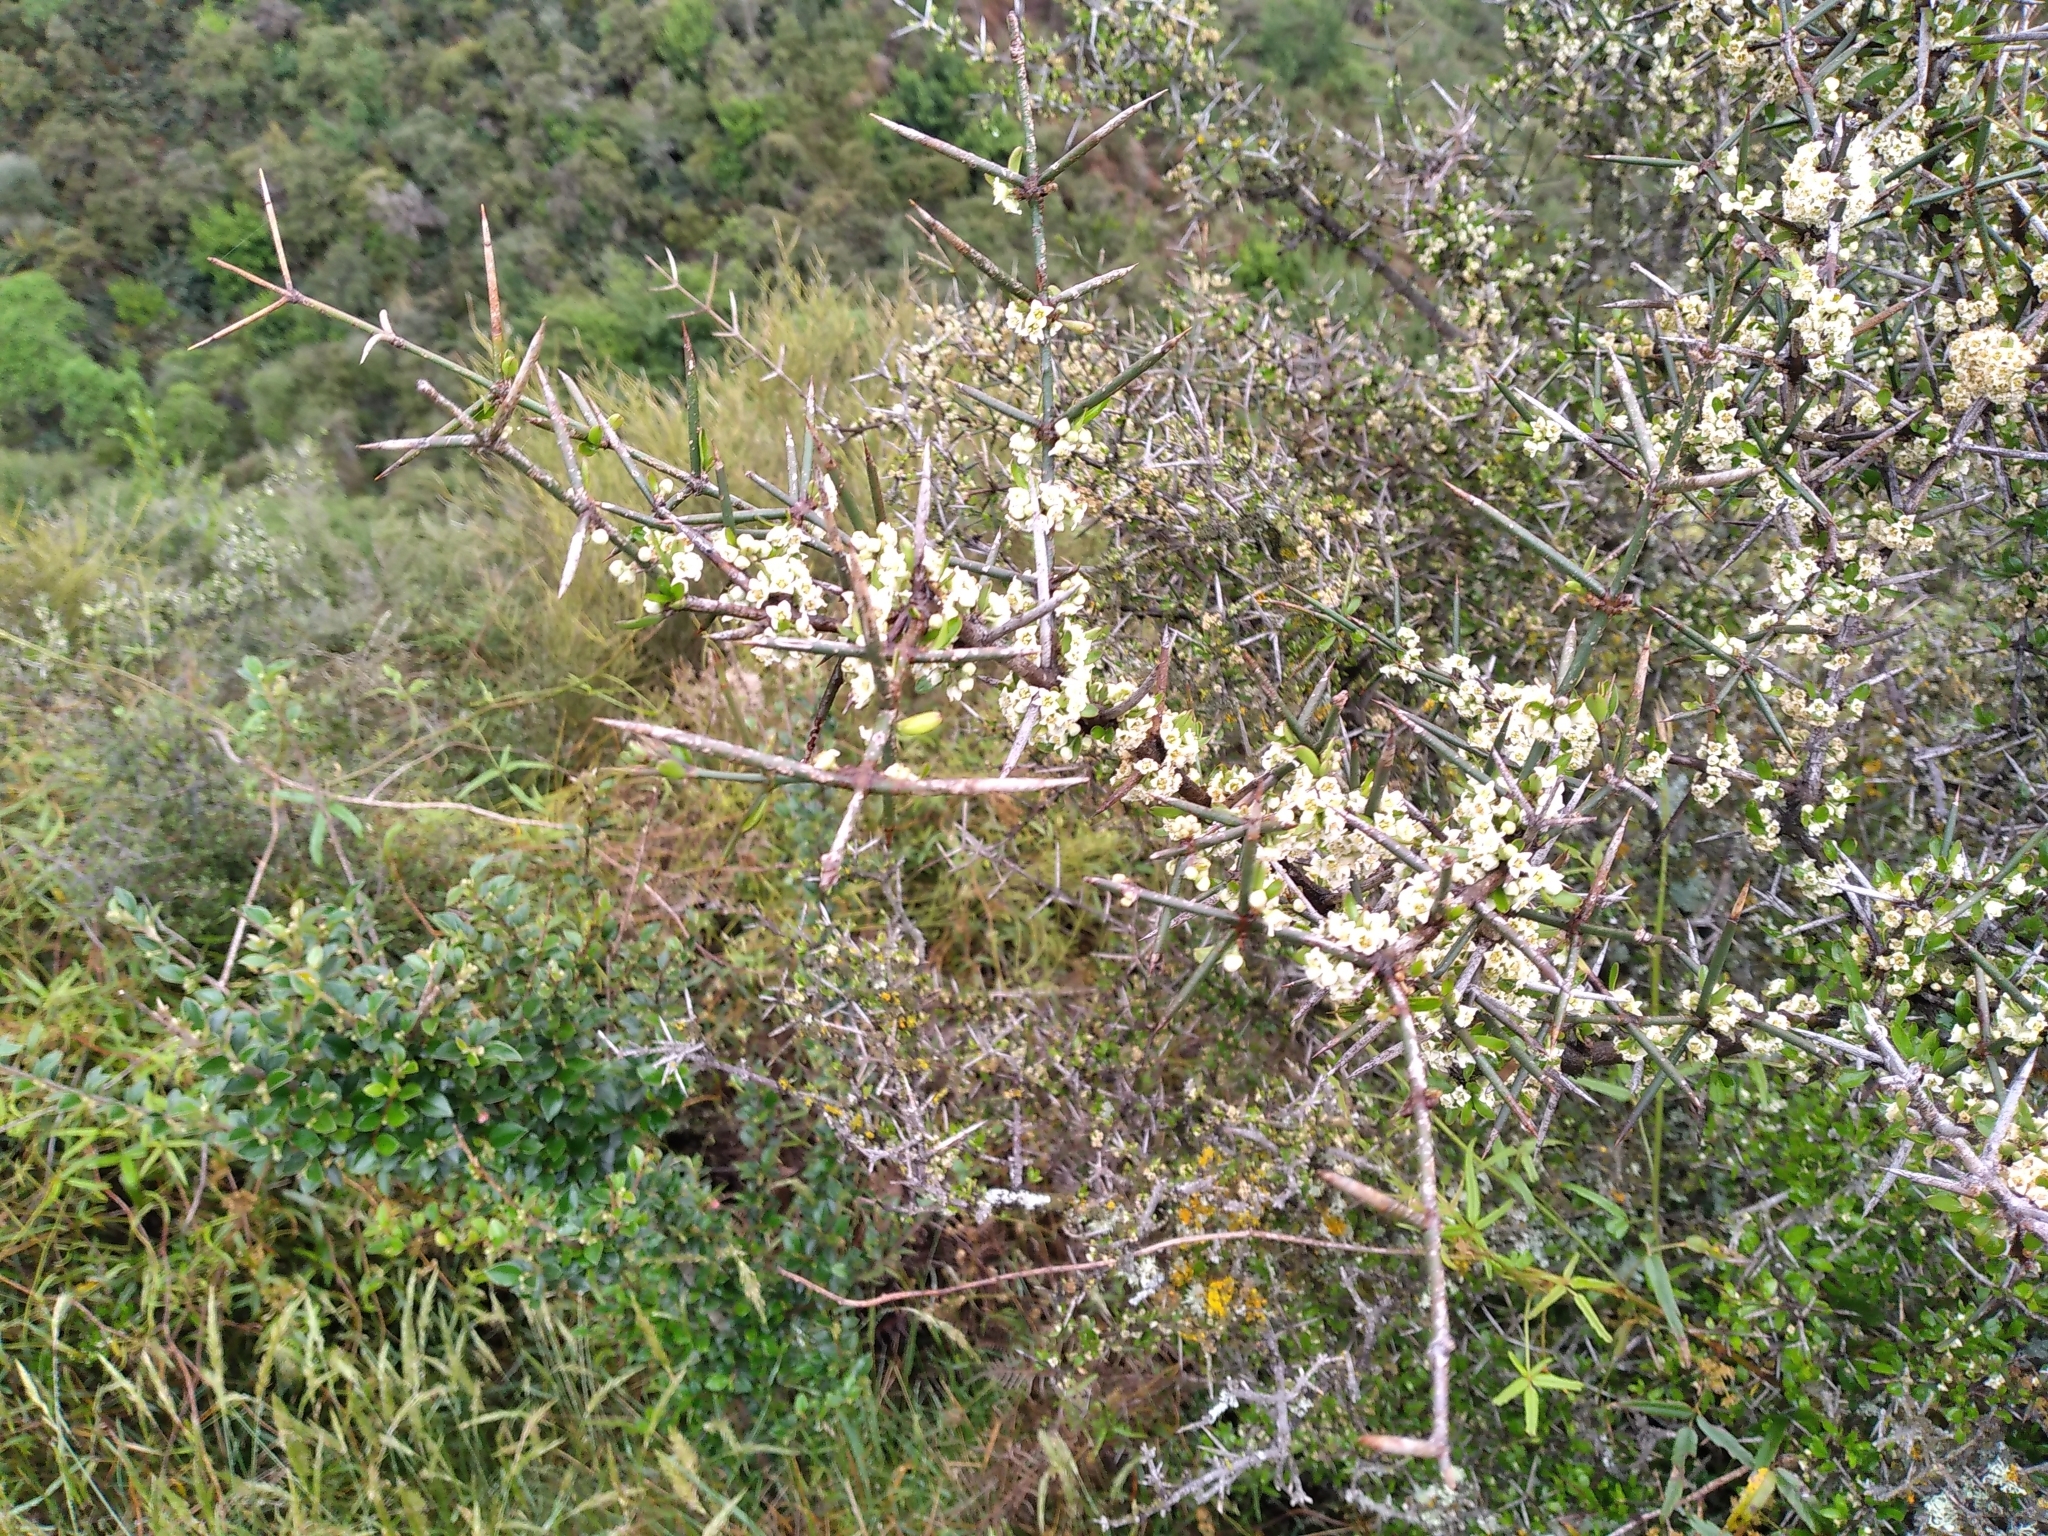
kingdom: Plantae
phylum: Tracheophyta
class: Magnoliopsida
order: Rosales
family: Rhamnaceae
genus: Discaria
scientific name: Discaria toumatou
